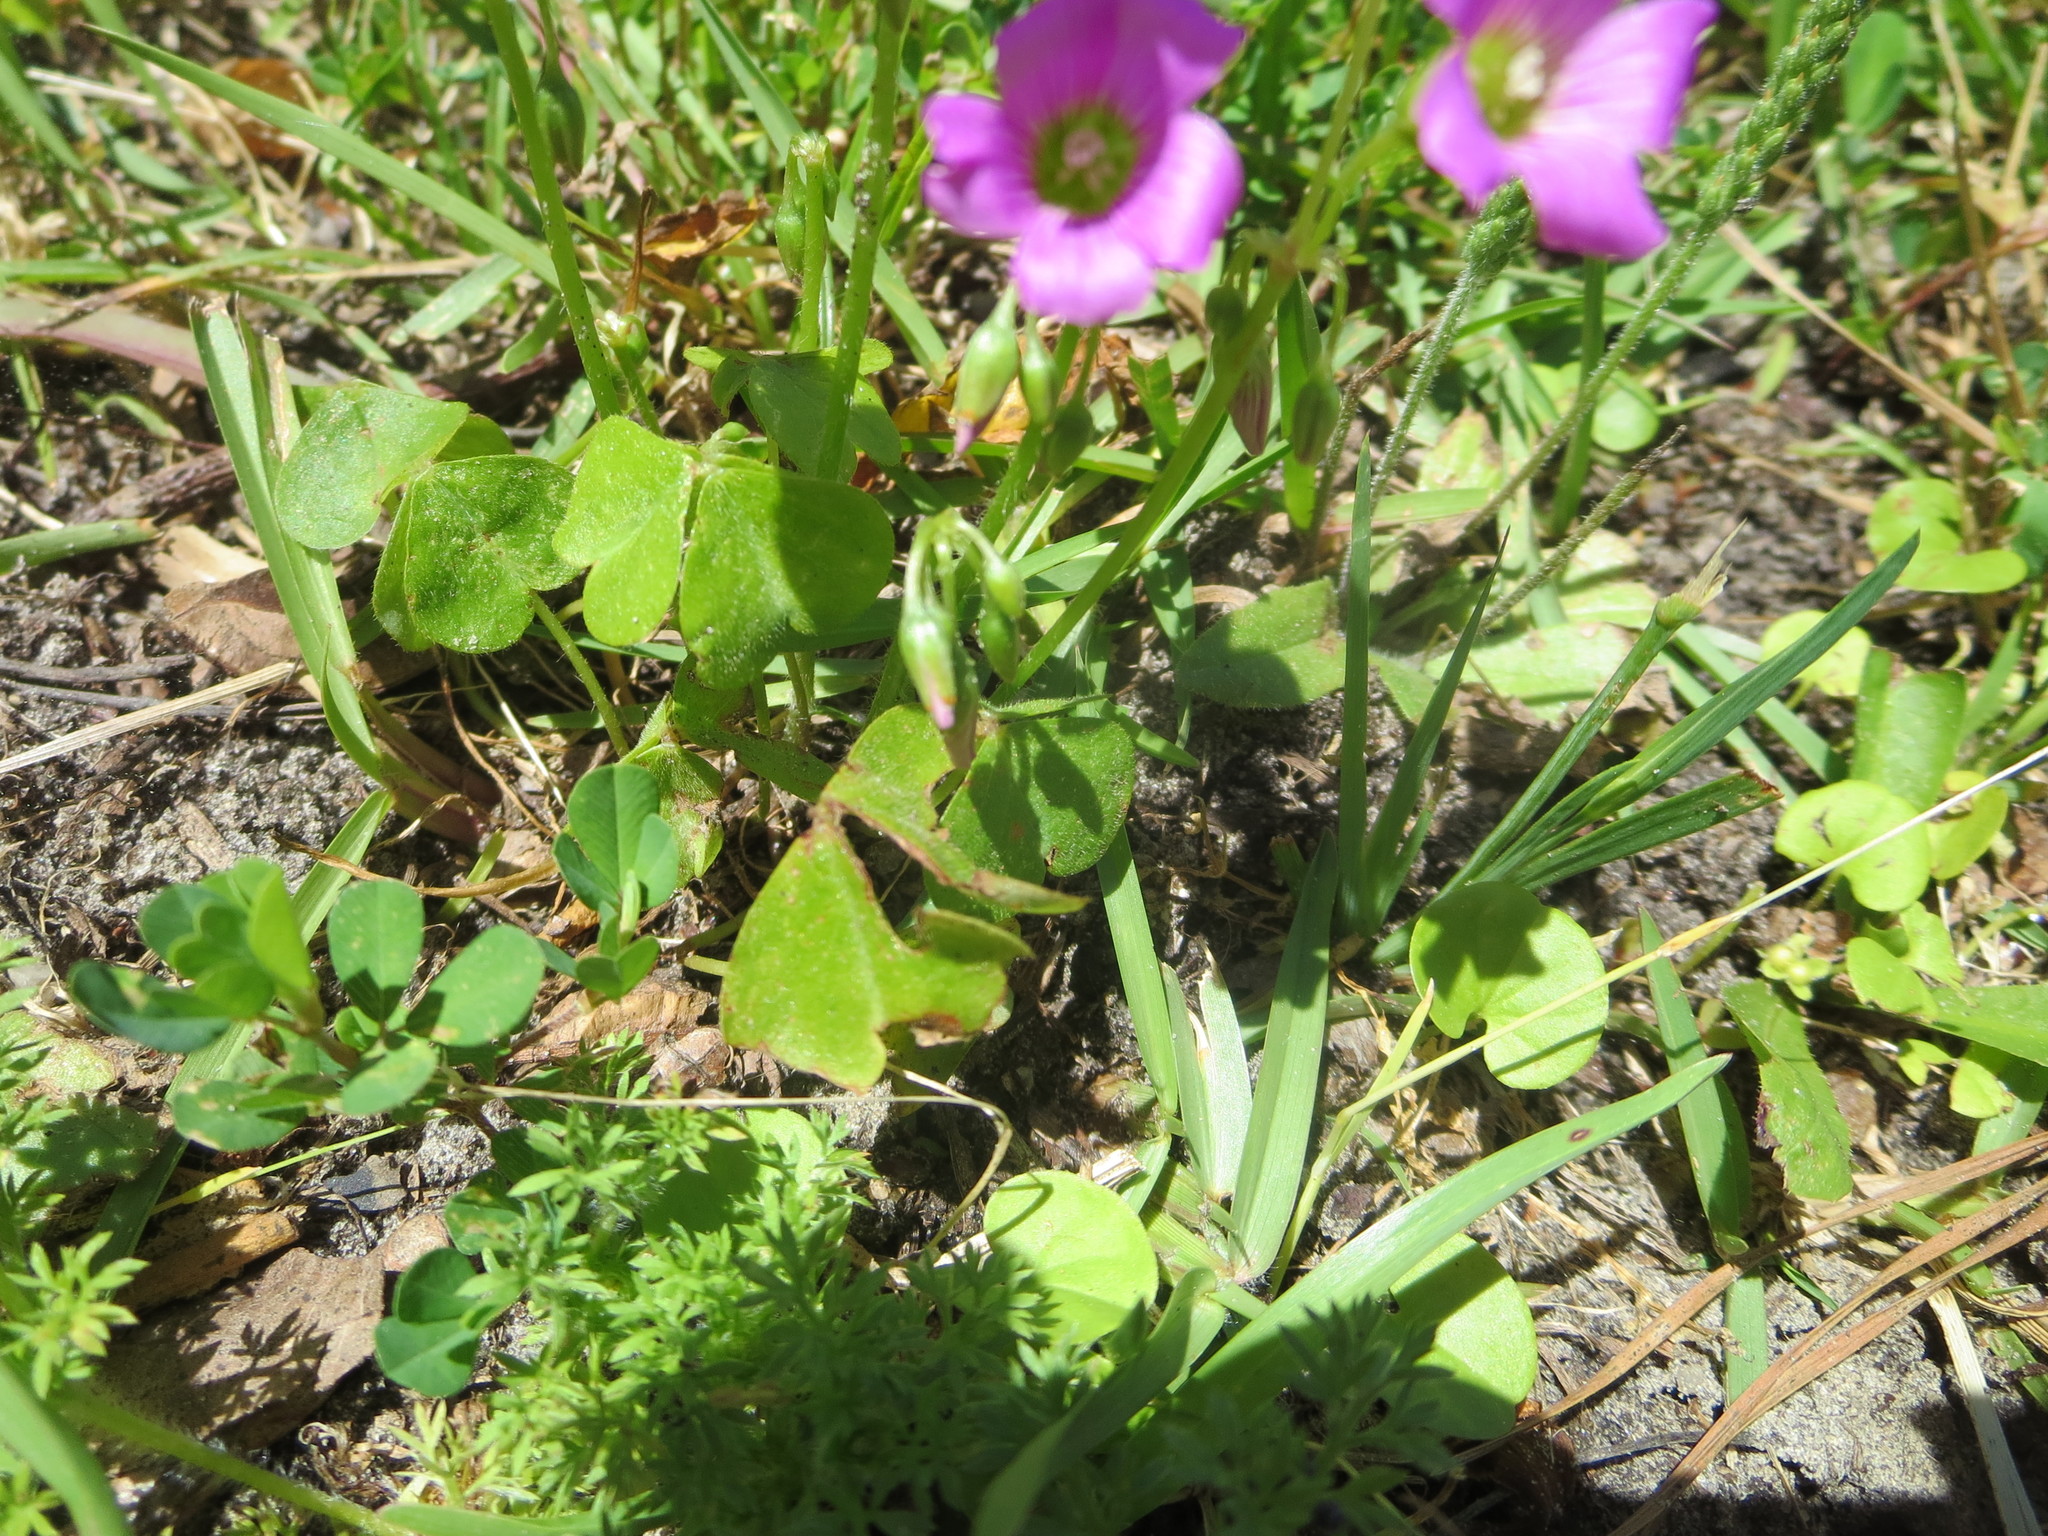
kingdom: Plantae
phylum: Tracheophyta
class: Magnoliopsida
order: Oxalidales
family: Oxalidaceae
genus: Oxalis
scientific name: Oxalis debilis
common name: Large-flowered pink-sorrel
